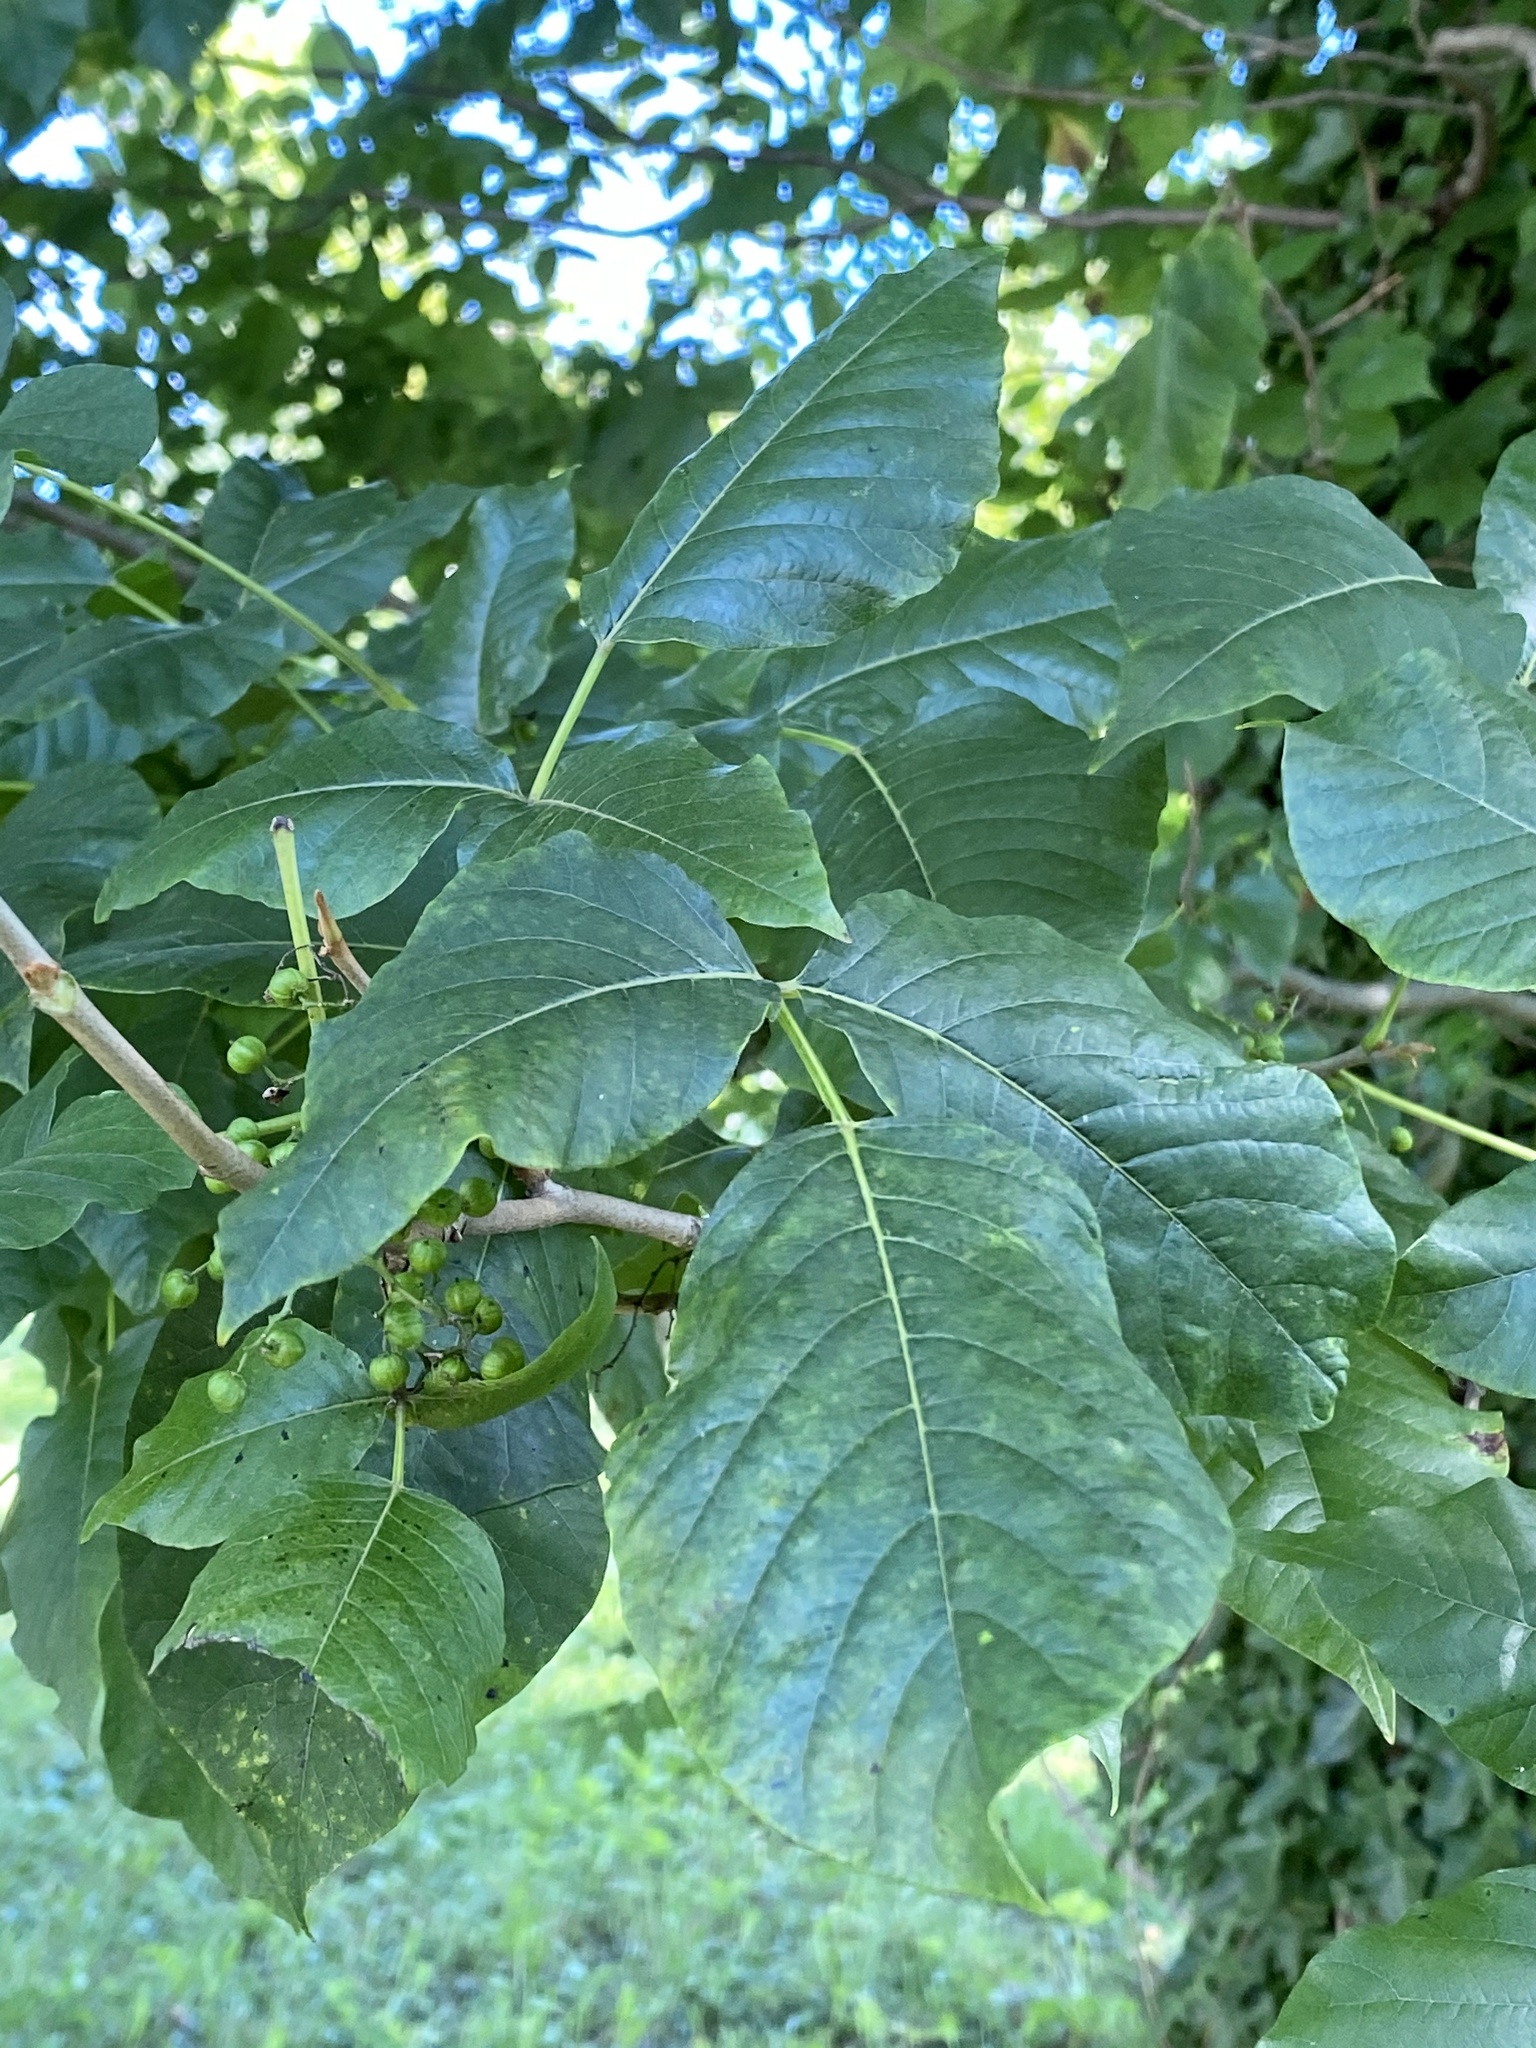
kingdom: Plantae
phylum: Tracheophyta
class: Magnoliopsida
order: Sapindales
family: Anacardiaceae
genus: Toxicodendron
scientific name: Toxicodendron radicans
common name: Poison ivy
